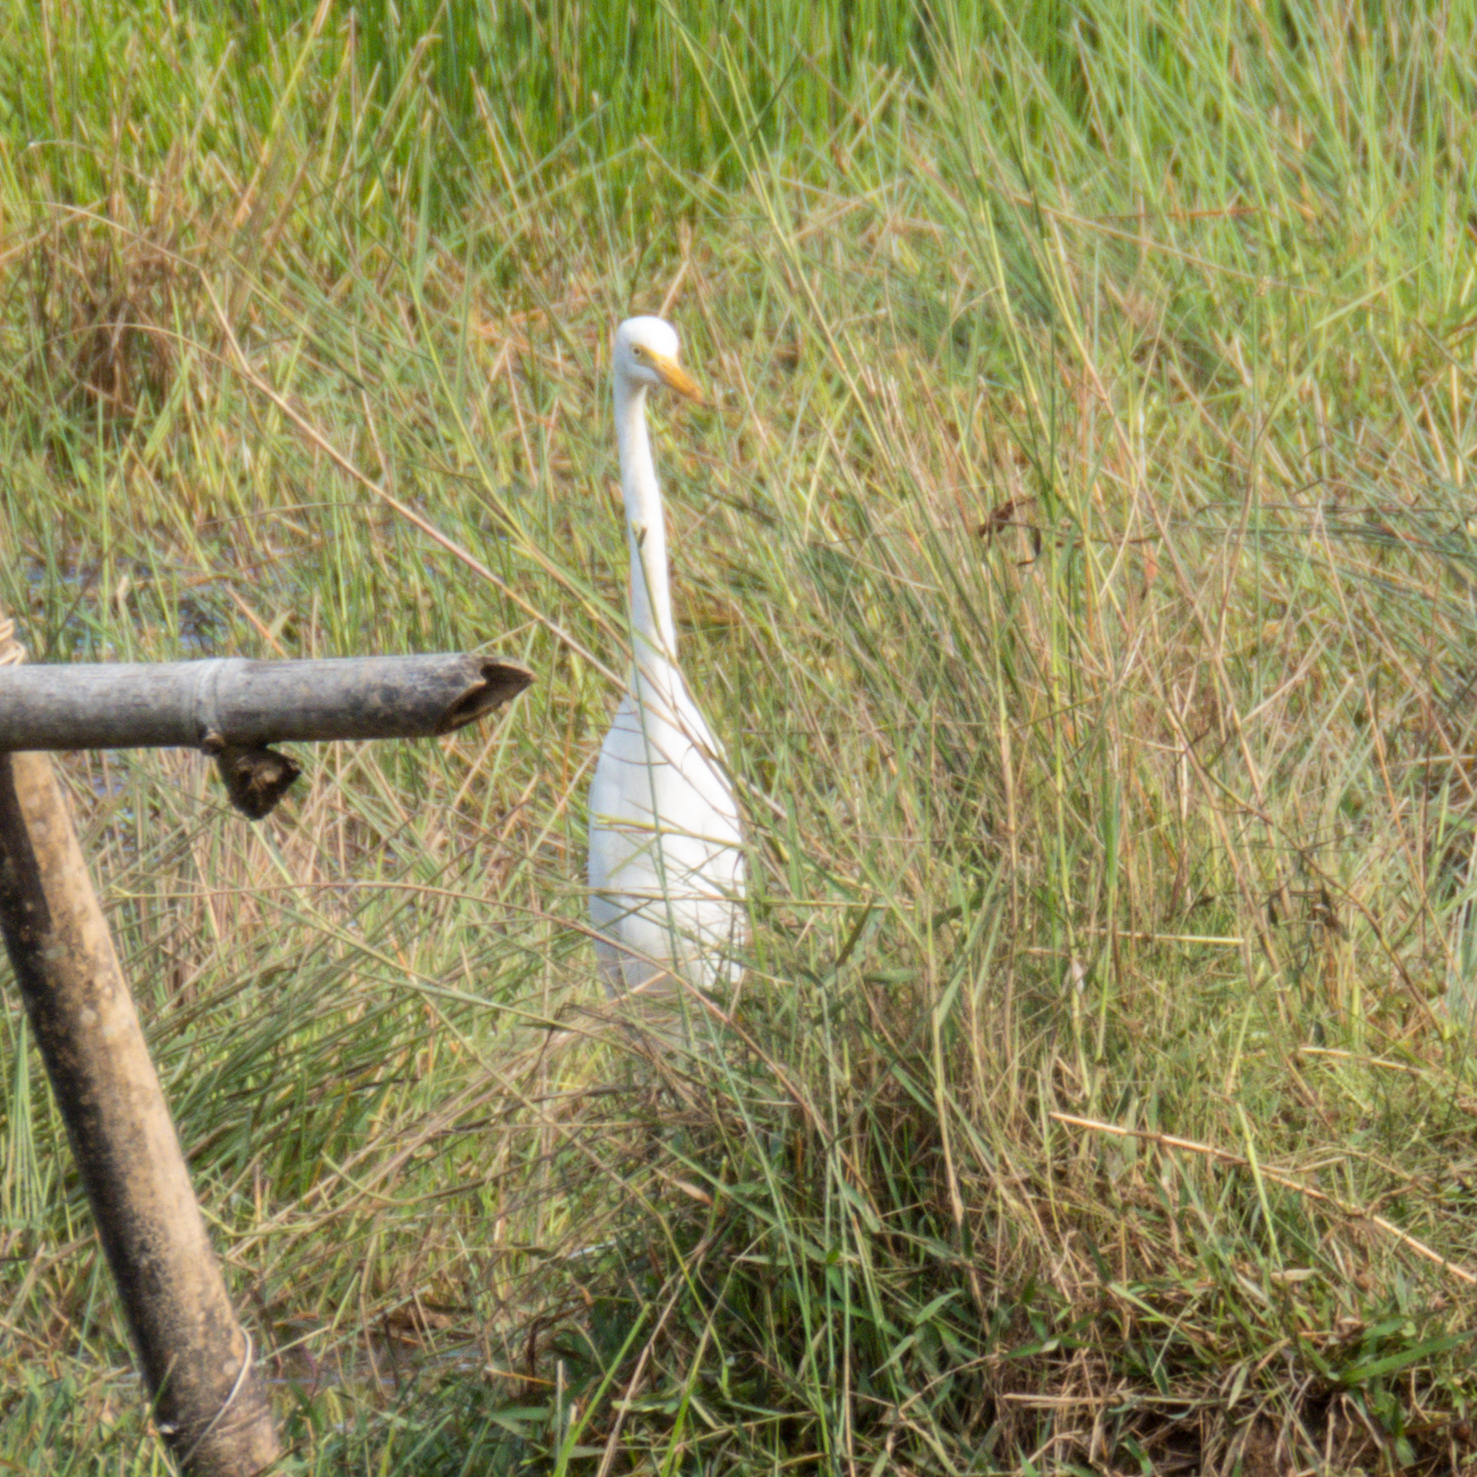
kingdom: Animalia
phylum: Chordata
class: Aves
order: Pelecaniformes
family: Ardeidae
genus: Egretta
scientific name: Egretta intermedia
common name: Intermediate egret
